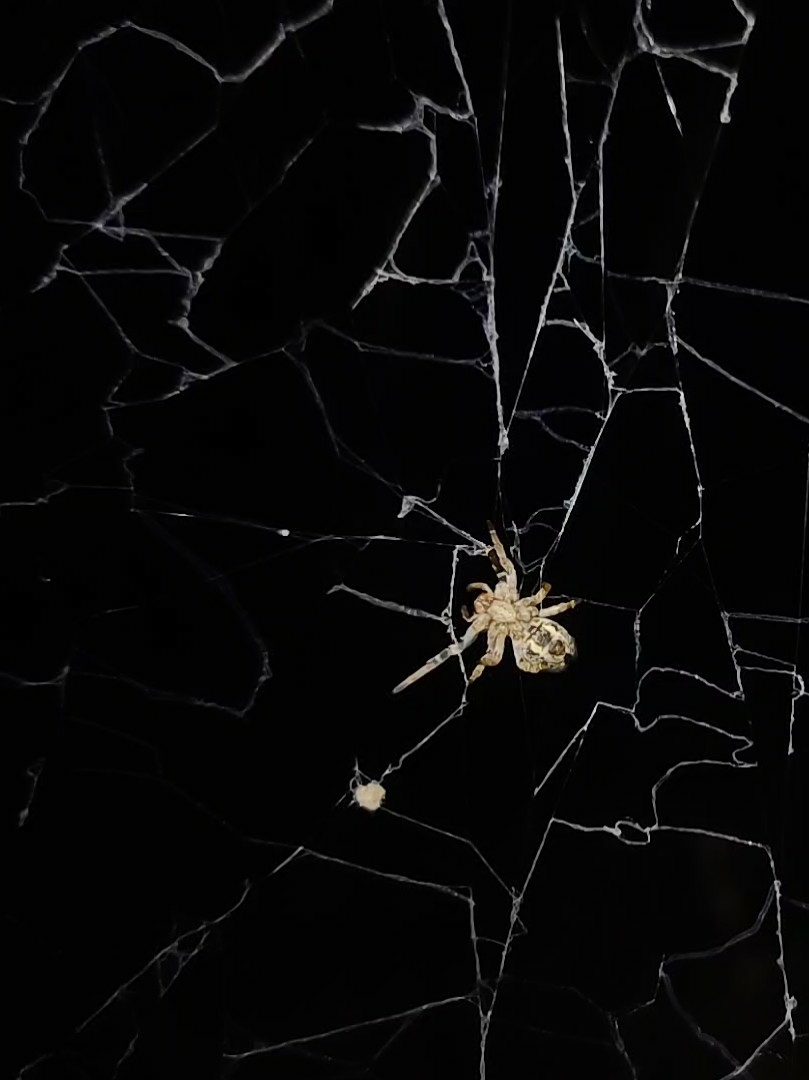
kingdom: Animalia
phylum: Arthropoda
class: Arachnida
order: Araneae
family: Eresidae
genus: Stegodyphus
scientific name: Stegodyphus sarasinorum
